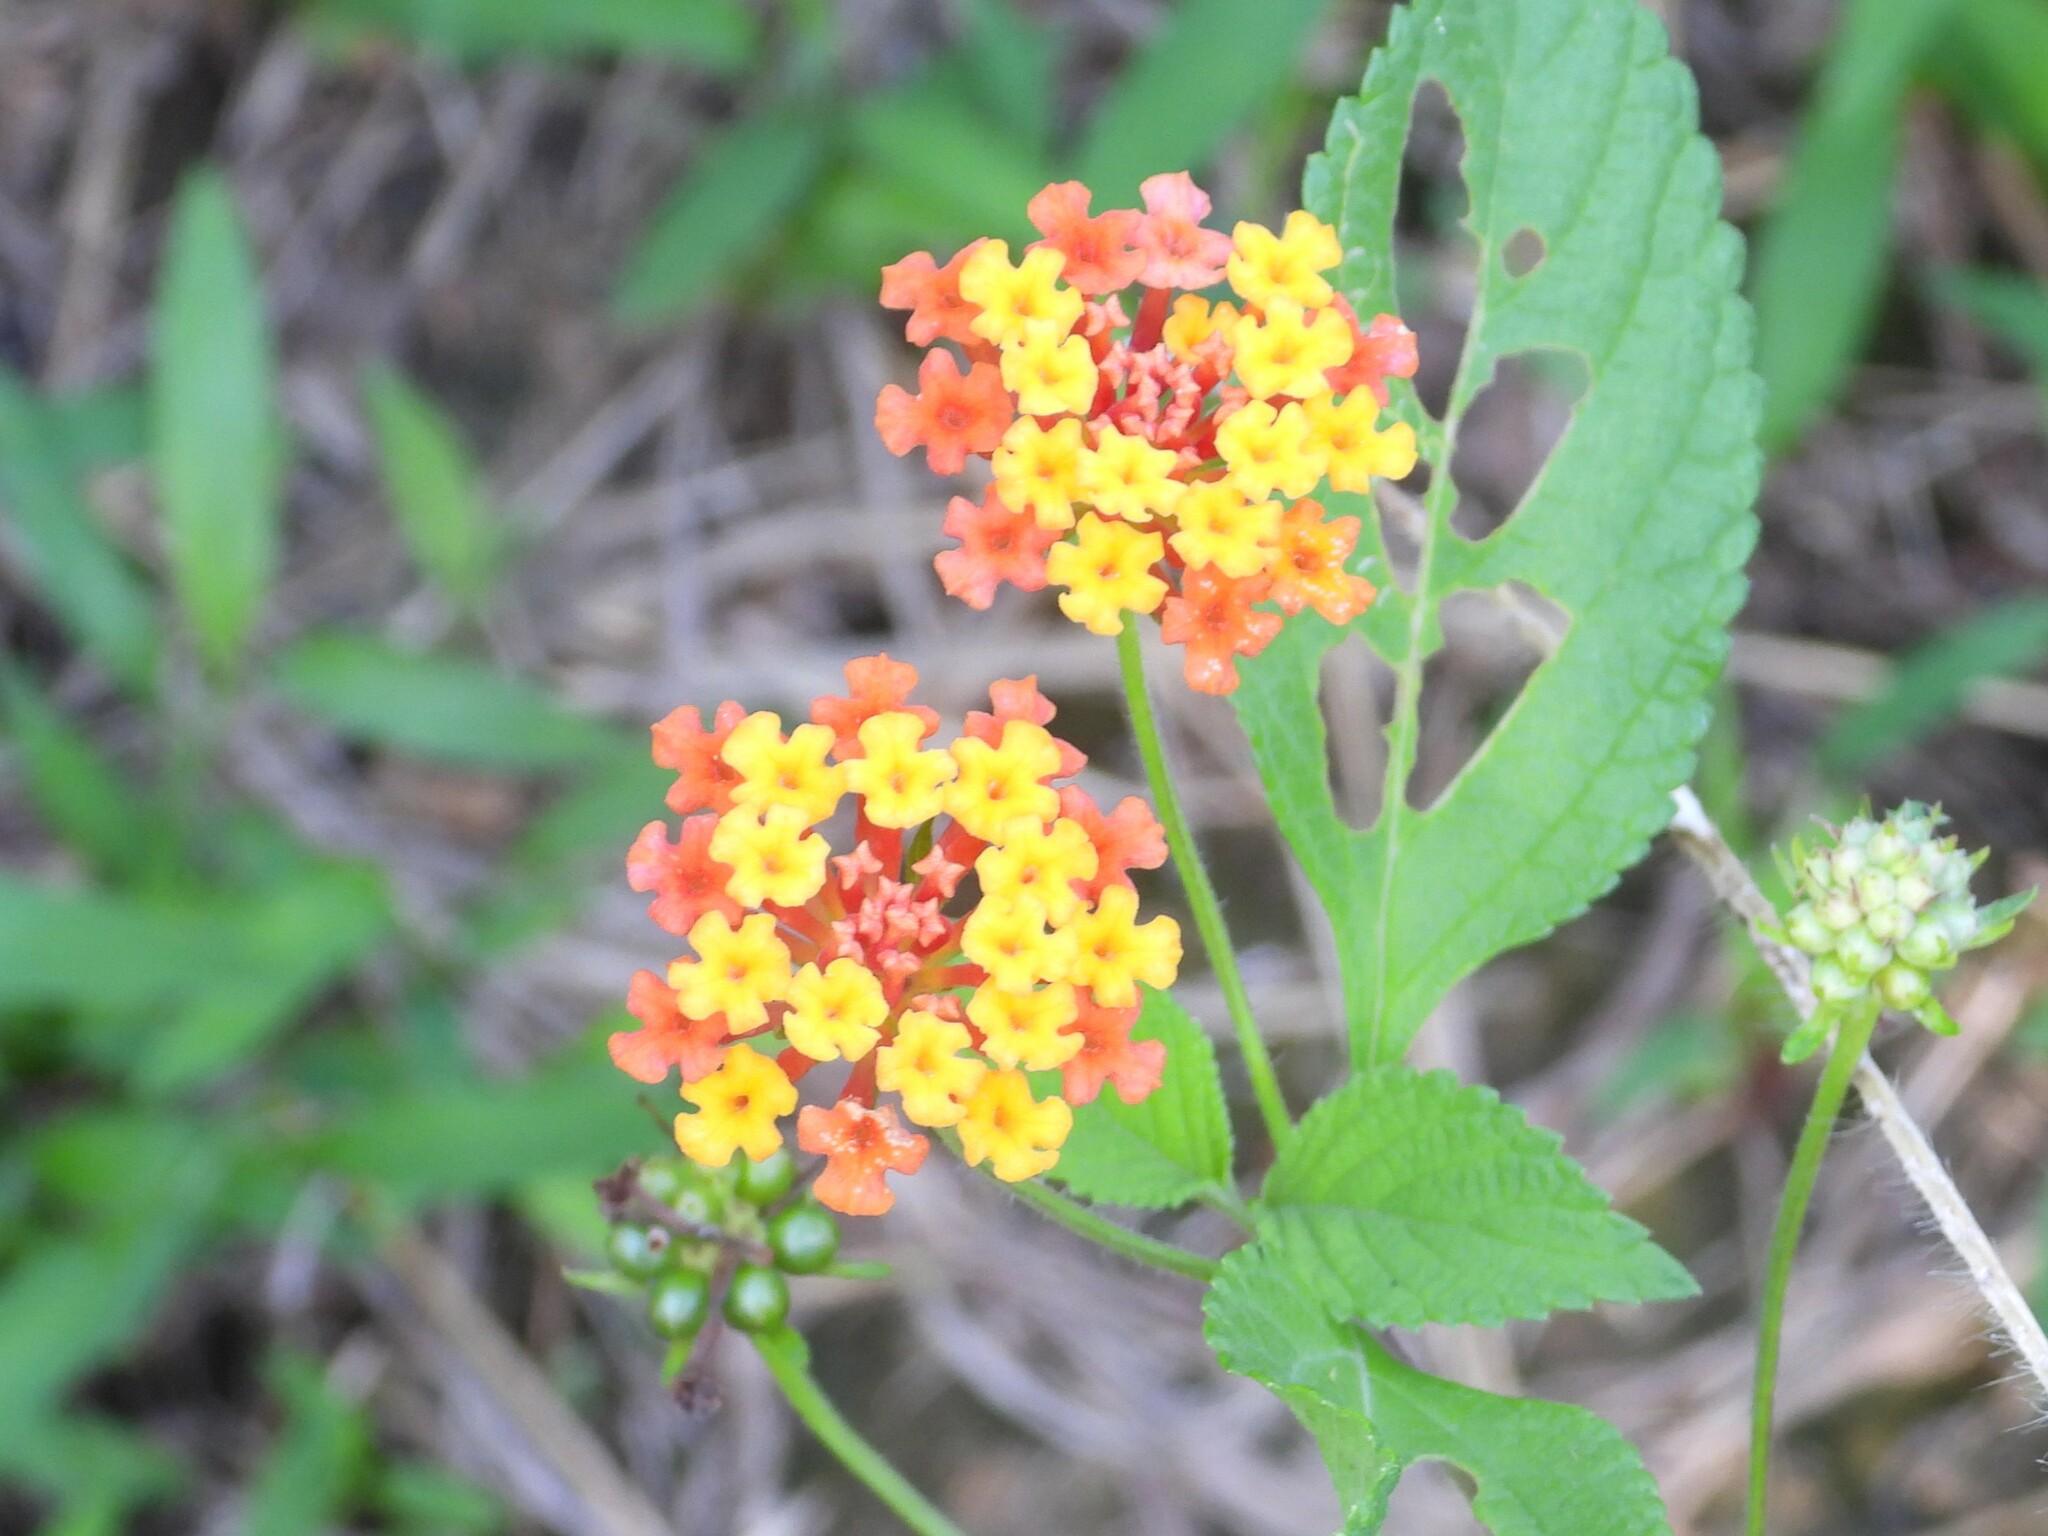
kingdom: Plantae
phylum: Tracheophyta
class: Magnoliopsida
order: Lamiales
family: Verbenaceae
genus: Lantana
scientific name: Lantana camara
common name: Lantana
